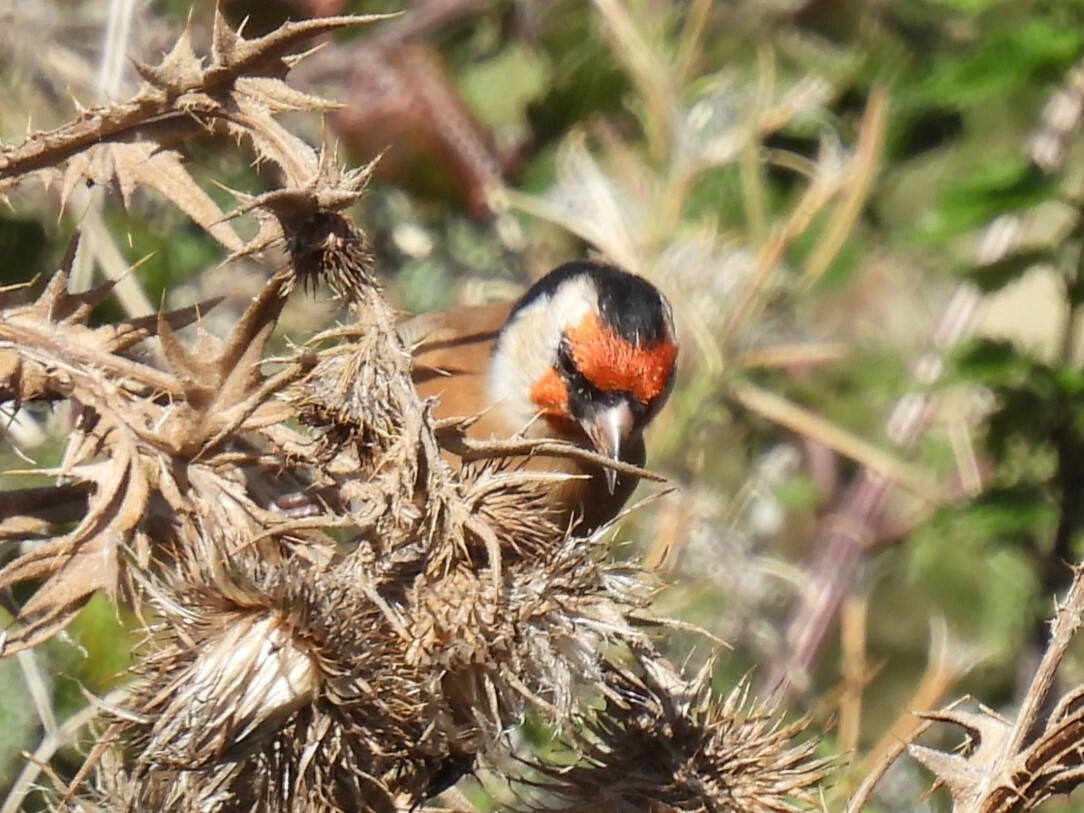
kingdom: Animalia
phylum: Chordata
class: Aves
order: Passeriformes
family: Fringillidae
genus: Carduelis
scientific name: Carduelis carduelis
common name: European goldfinch
